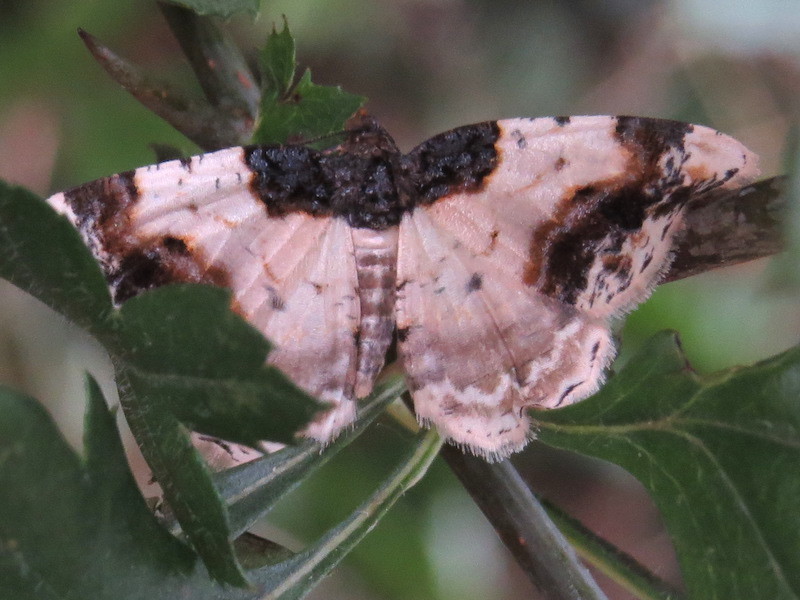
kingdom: Animalia
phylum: Arthropoda
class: Insecta
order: Lepidoptera
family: Geometridae
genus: Ligdia
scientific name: Ligdia adustata
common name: Scorched carpet
